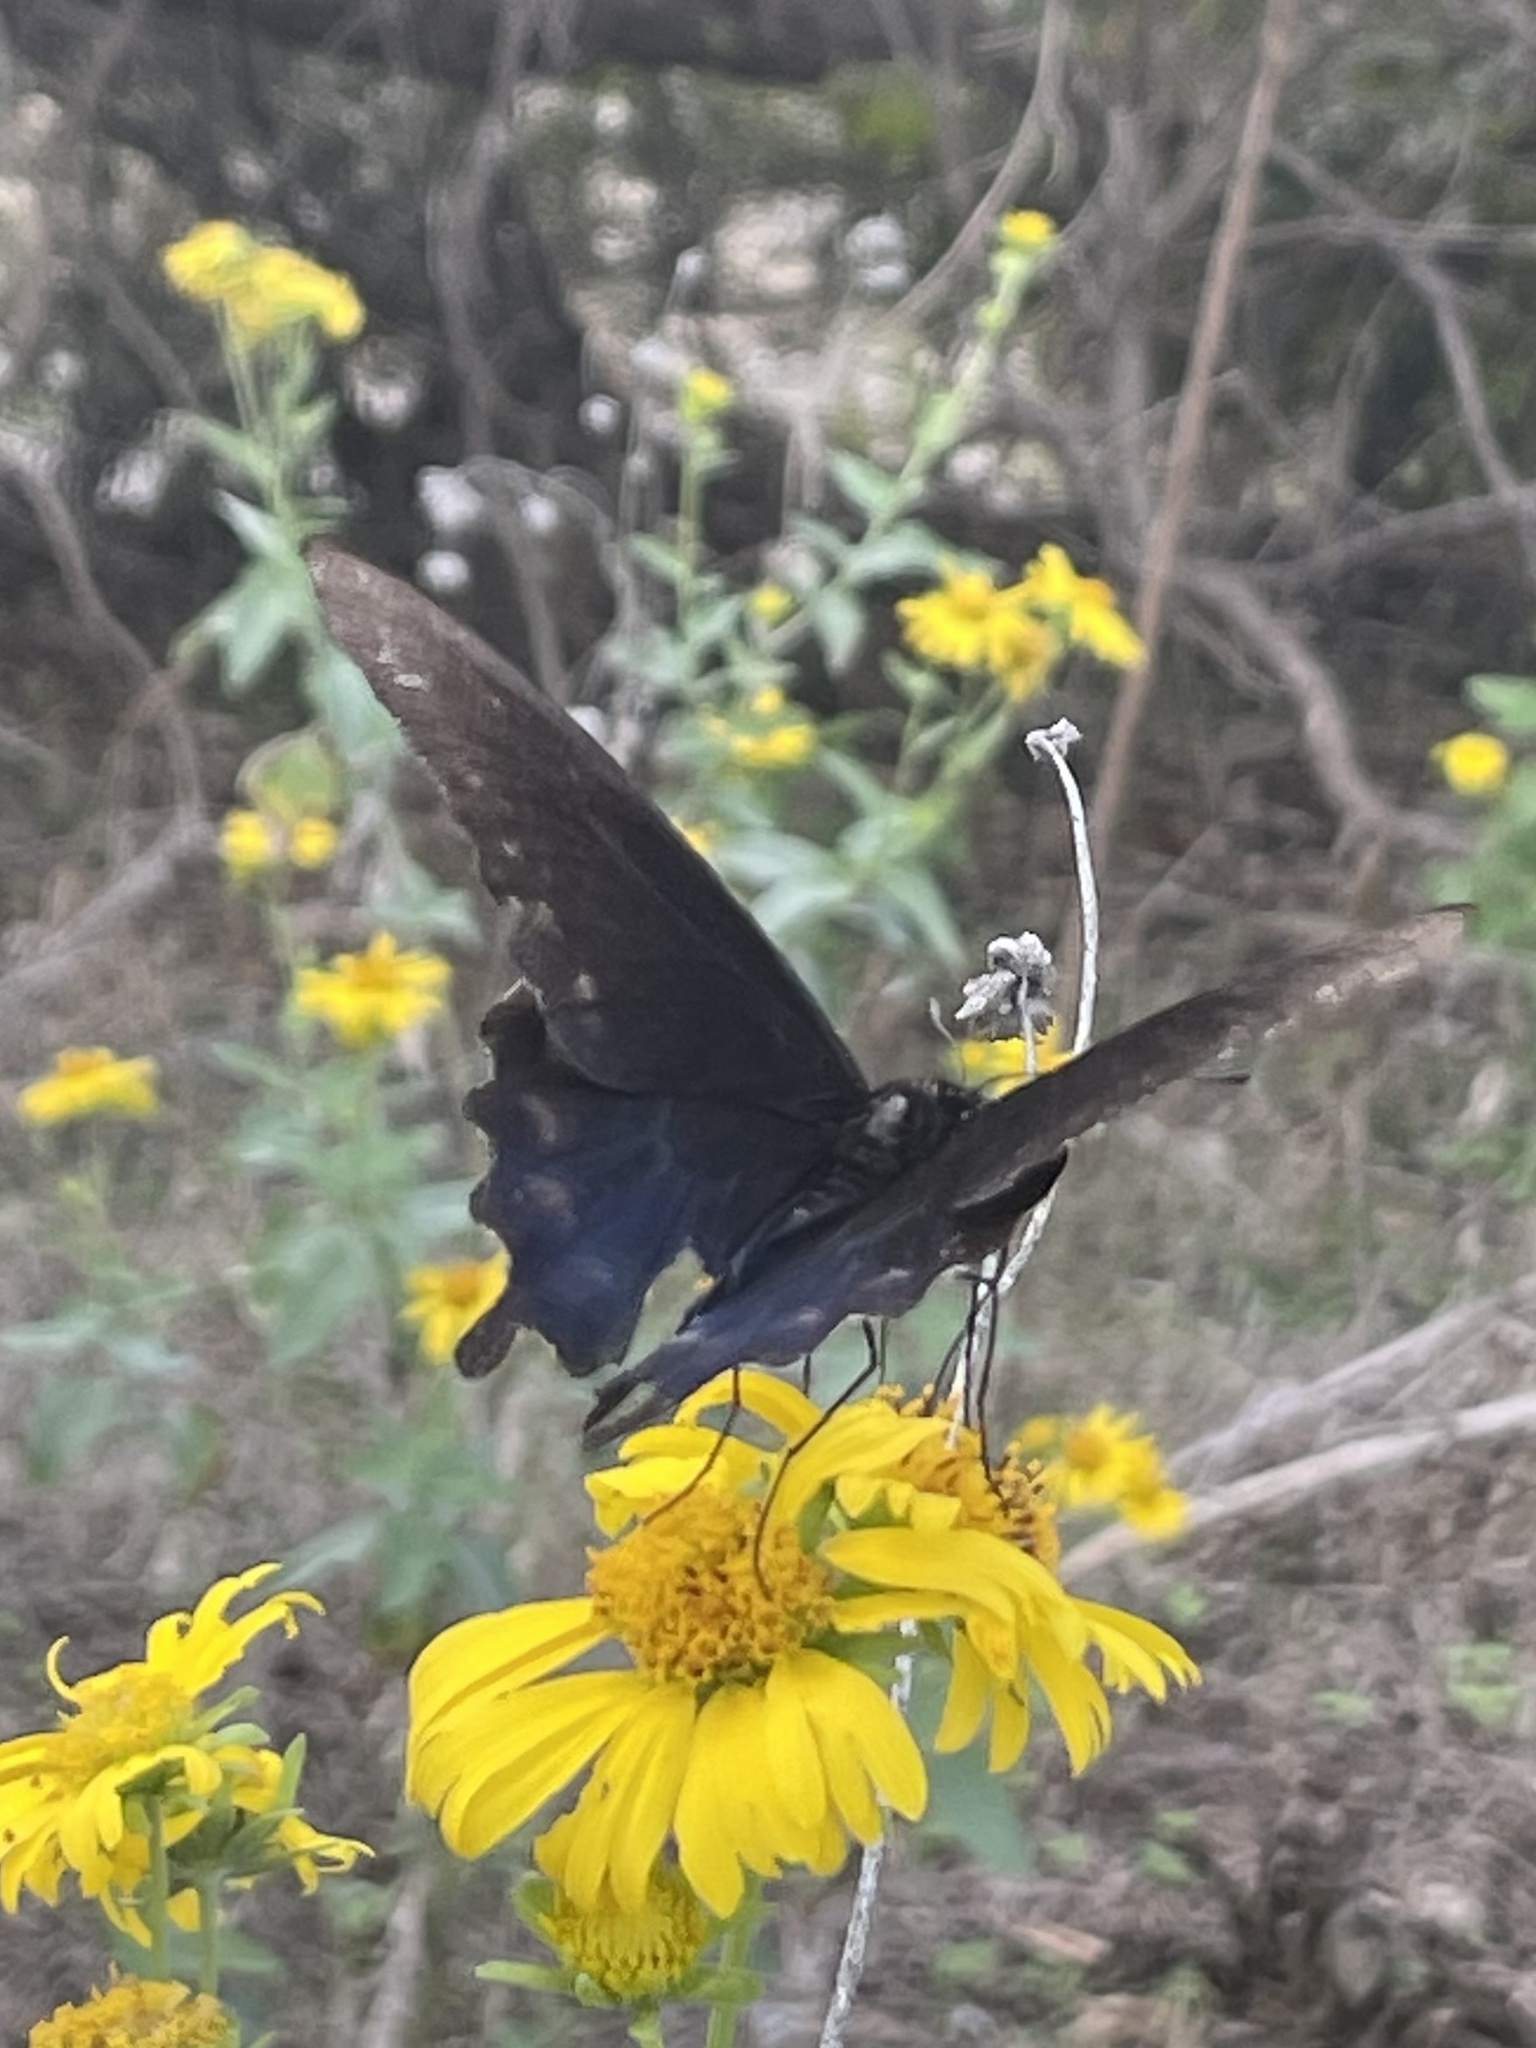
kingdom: Animalia
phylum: Arthropoda
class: Insecta
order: Lepidoptera
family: Papilionidae
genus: Battus
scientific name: Battus philenor
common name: Pipevine swallowtail
